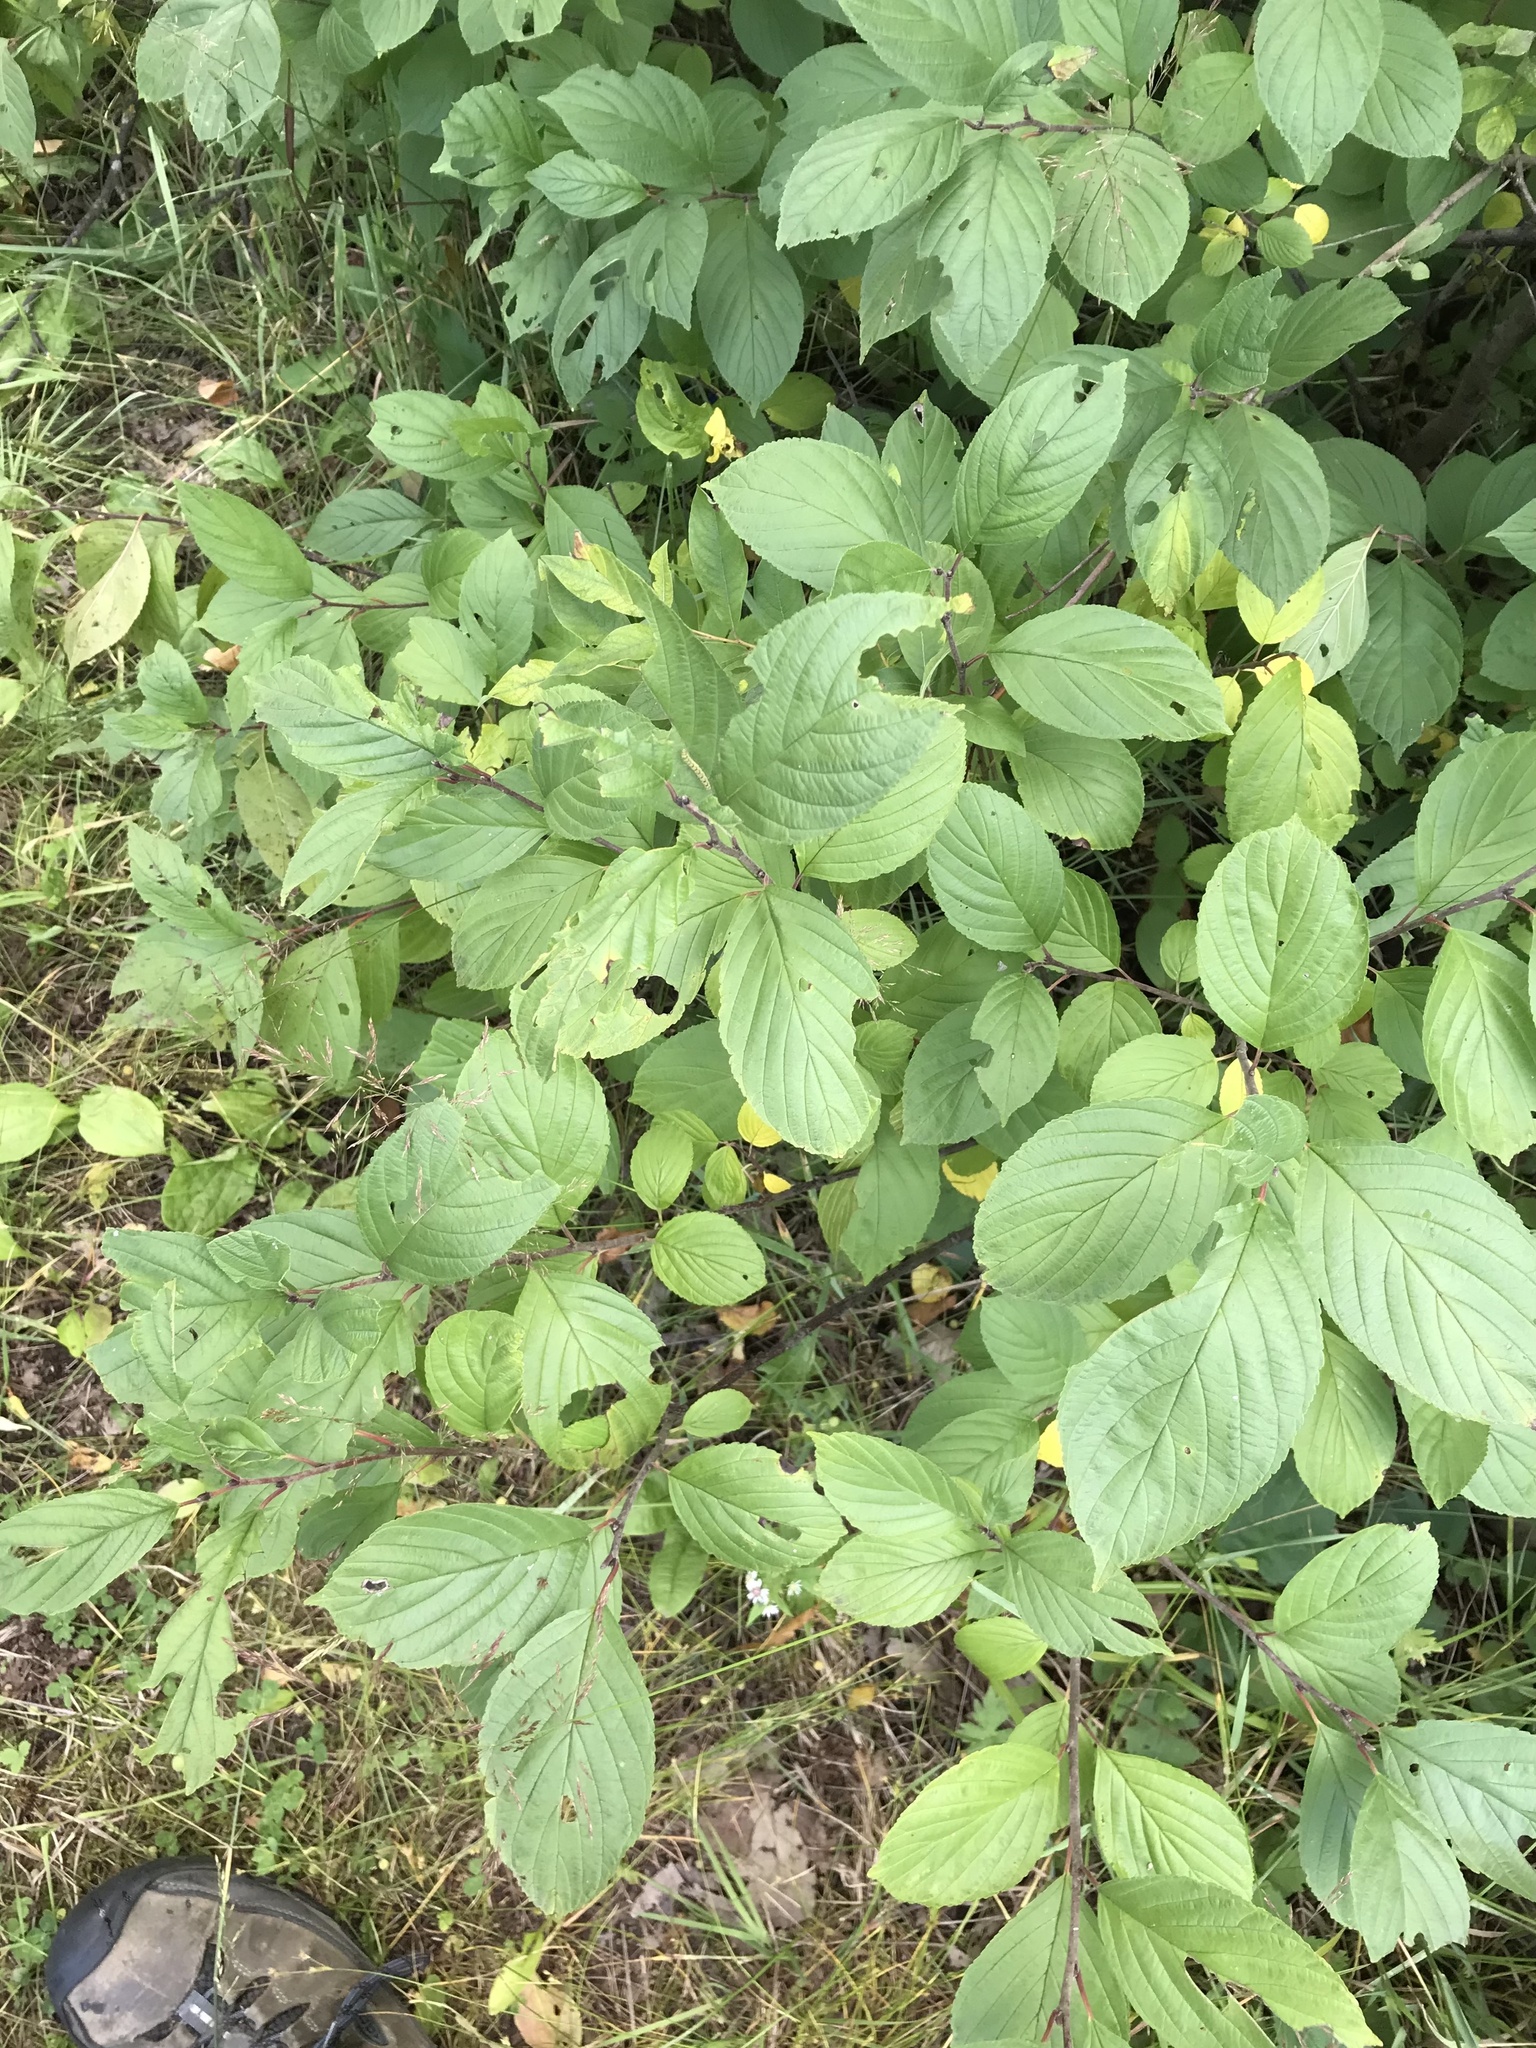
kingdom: Plantae
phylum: Tracheophyta
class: Magnoliopsida
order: Rosales
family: Rhamnaceae
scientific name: Rhamnaceae
